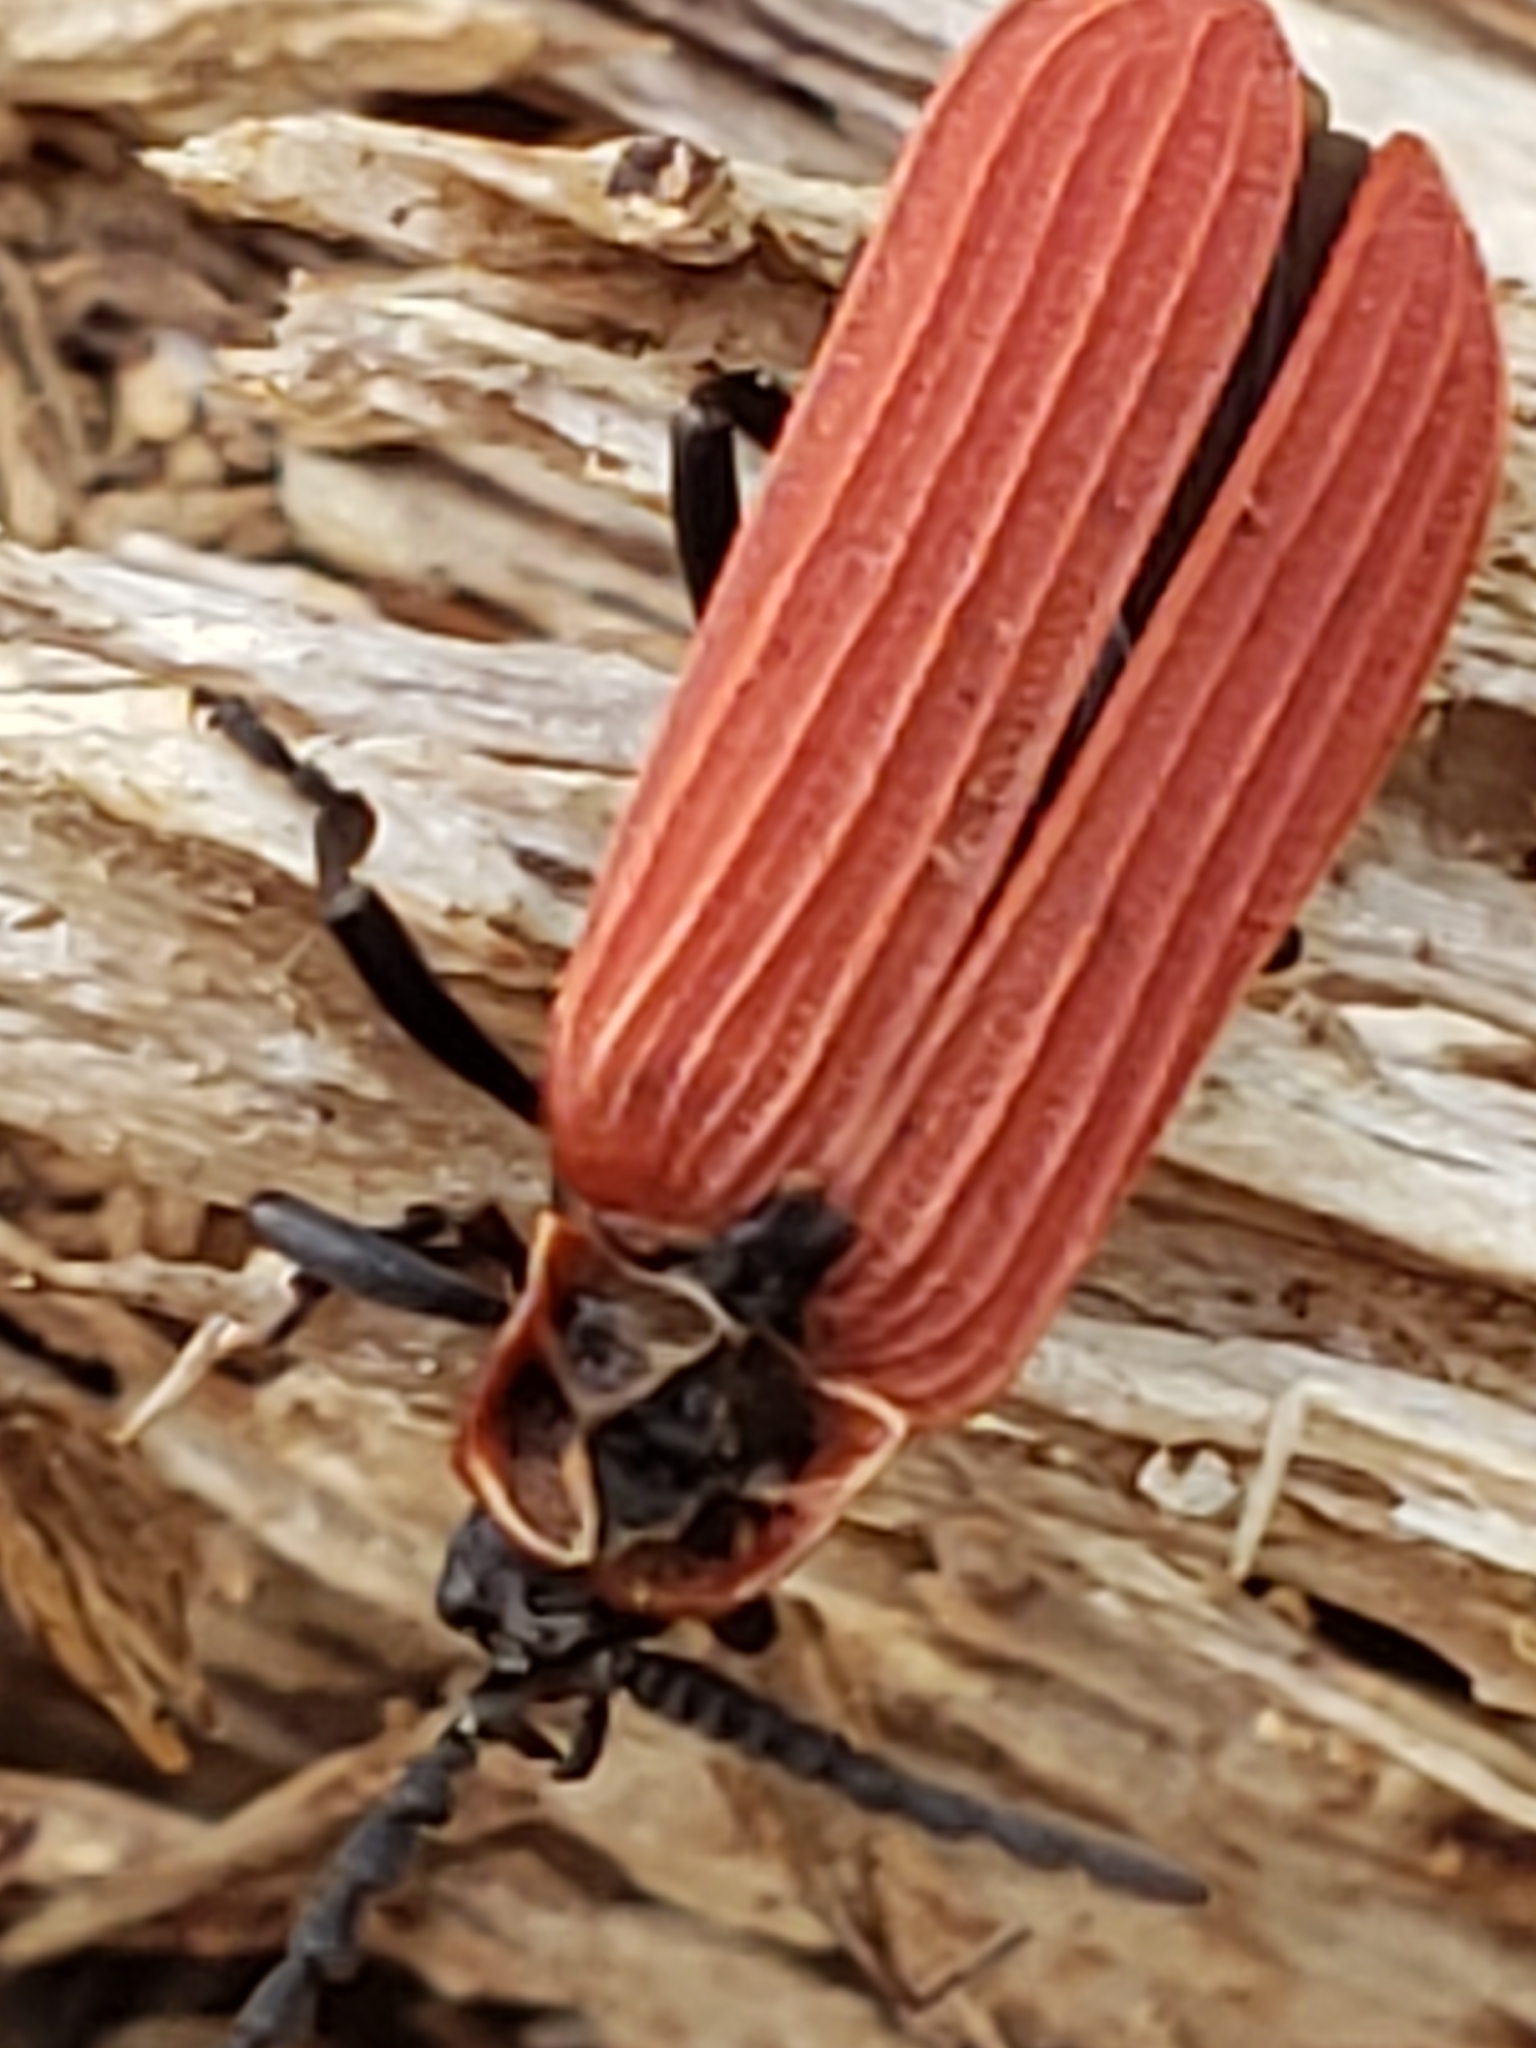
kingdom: Animalia
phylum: Arthropoda
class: Insecta
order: Coleoptera
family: Lycidae
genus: Dictyoptera
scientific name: Dictyoptera aurora
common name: Golden net-winged beetle
